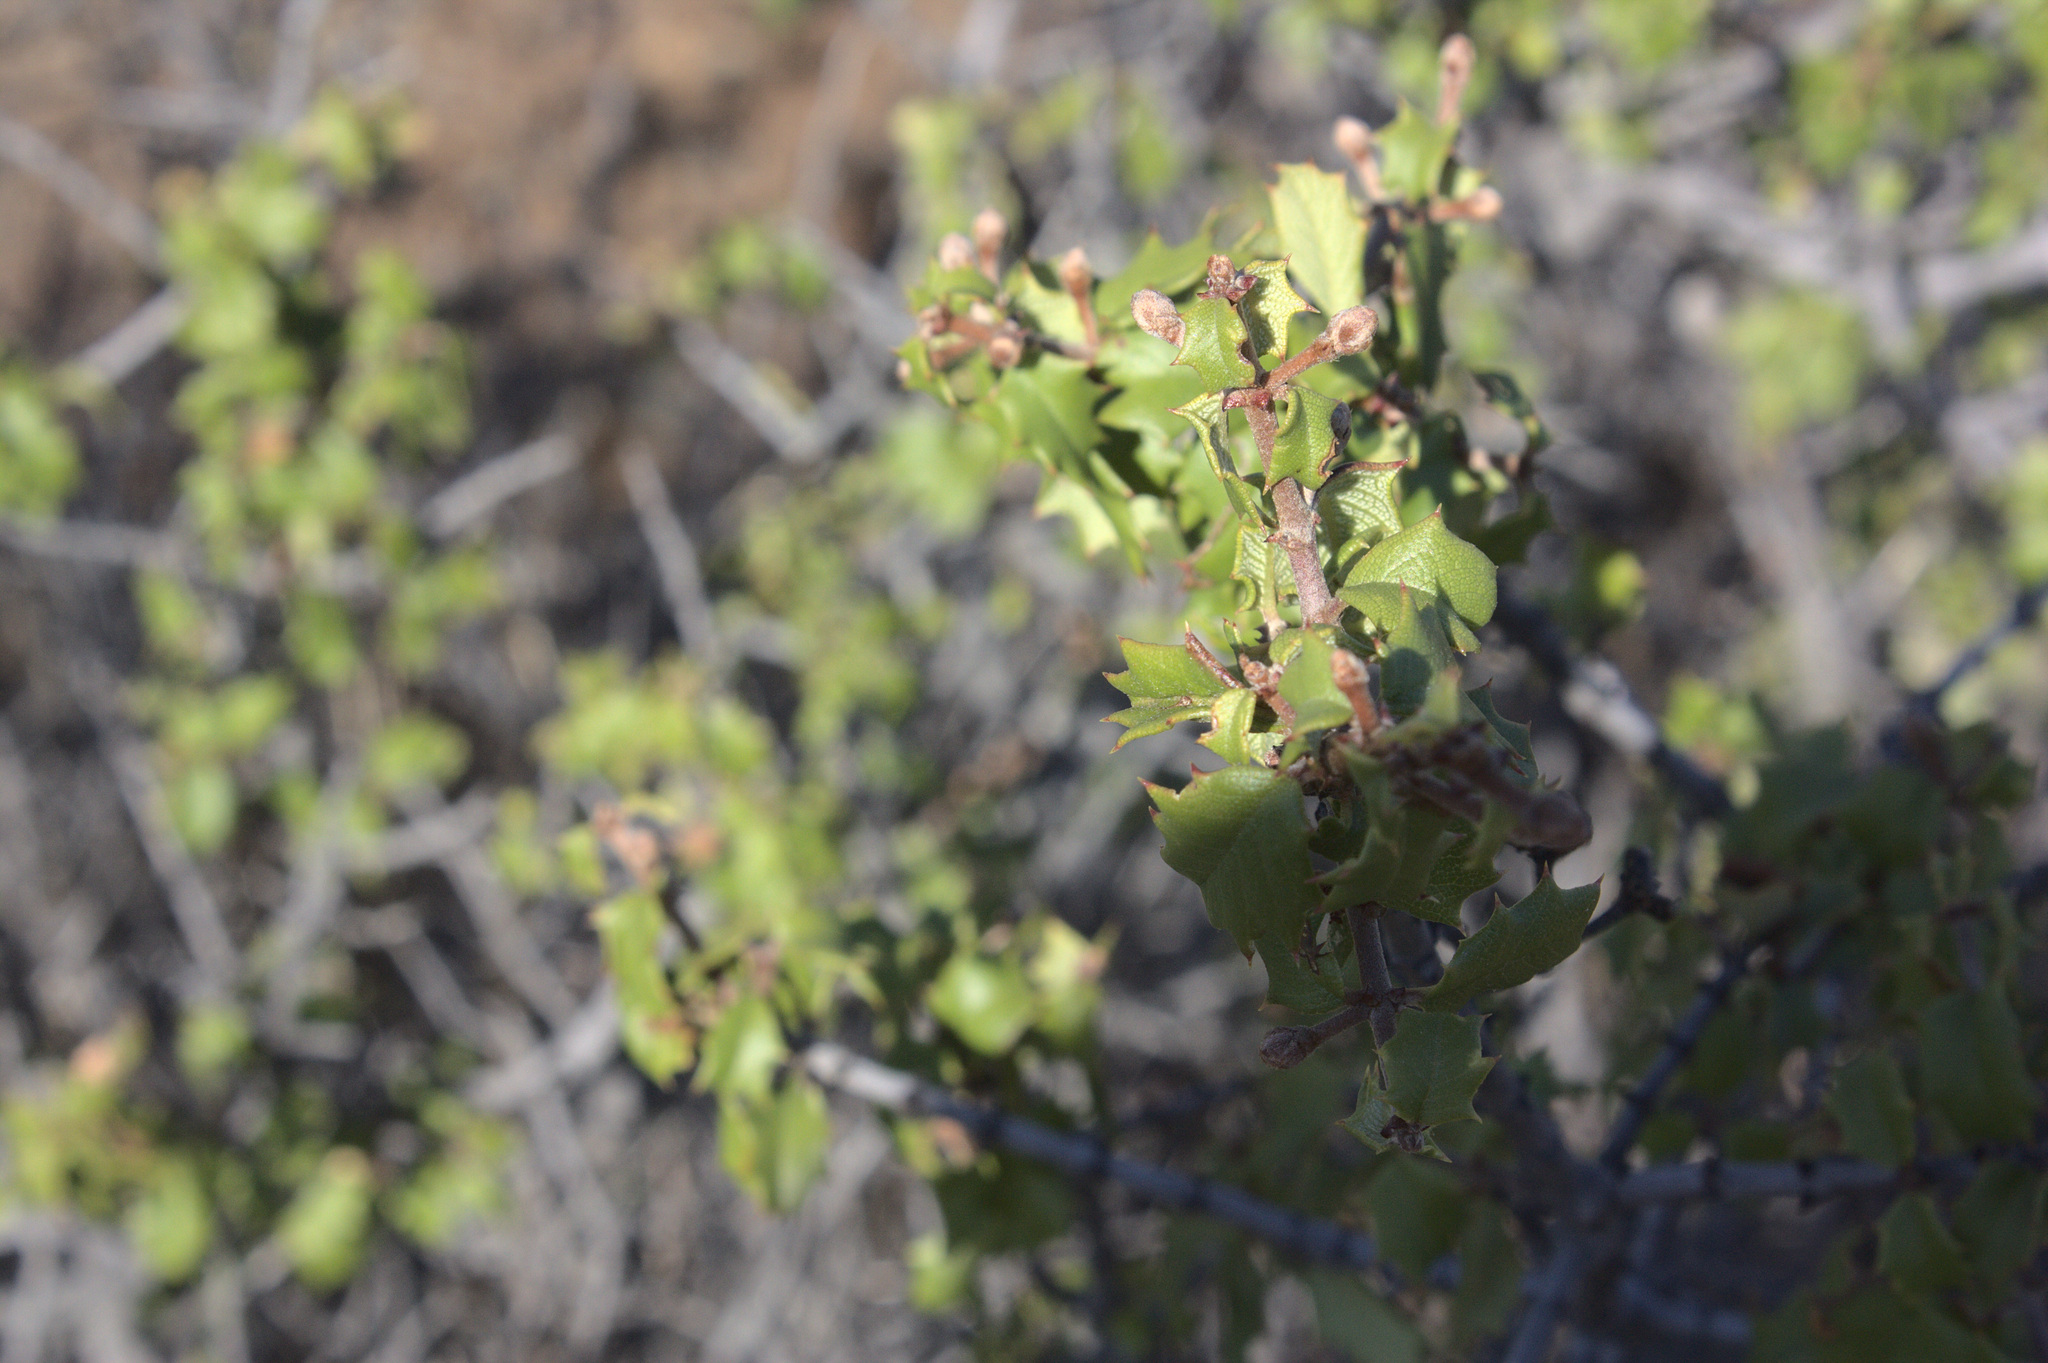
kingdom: Plantae
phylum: Tracheophyta
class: Magnoliopsida
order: Rosales
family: Rhamnaceae
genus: Ceanothus
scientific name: Ceanothus jepsonii
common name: Muskbrush
